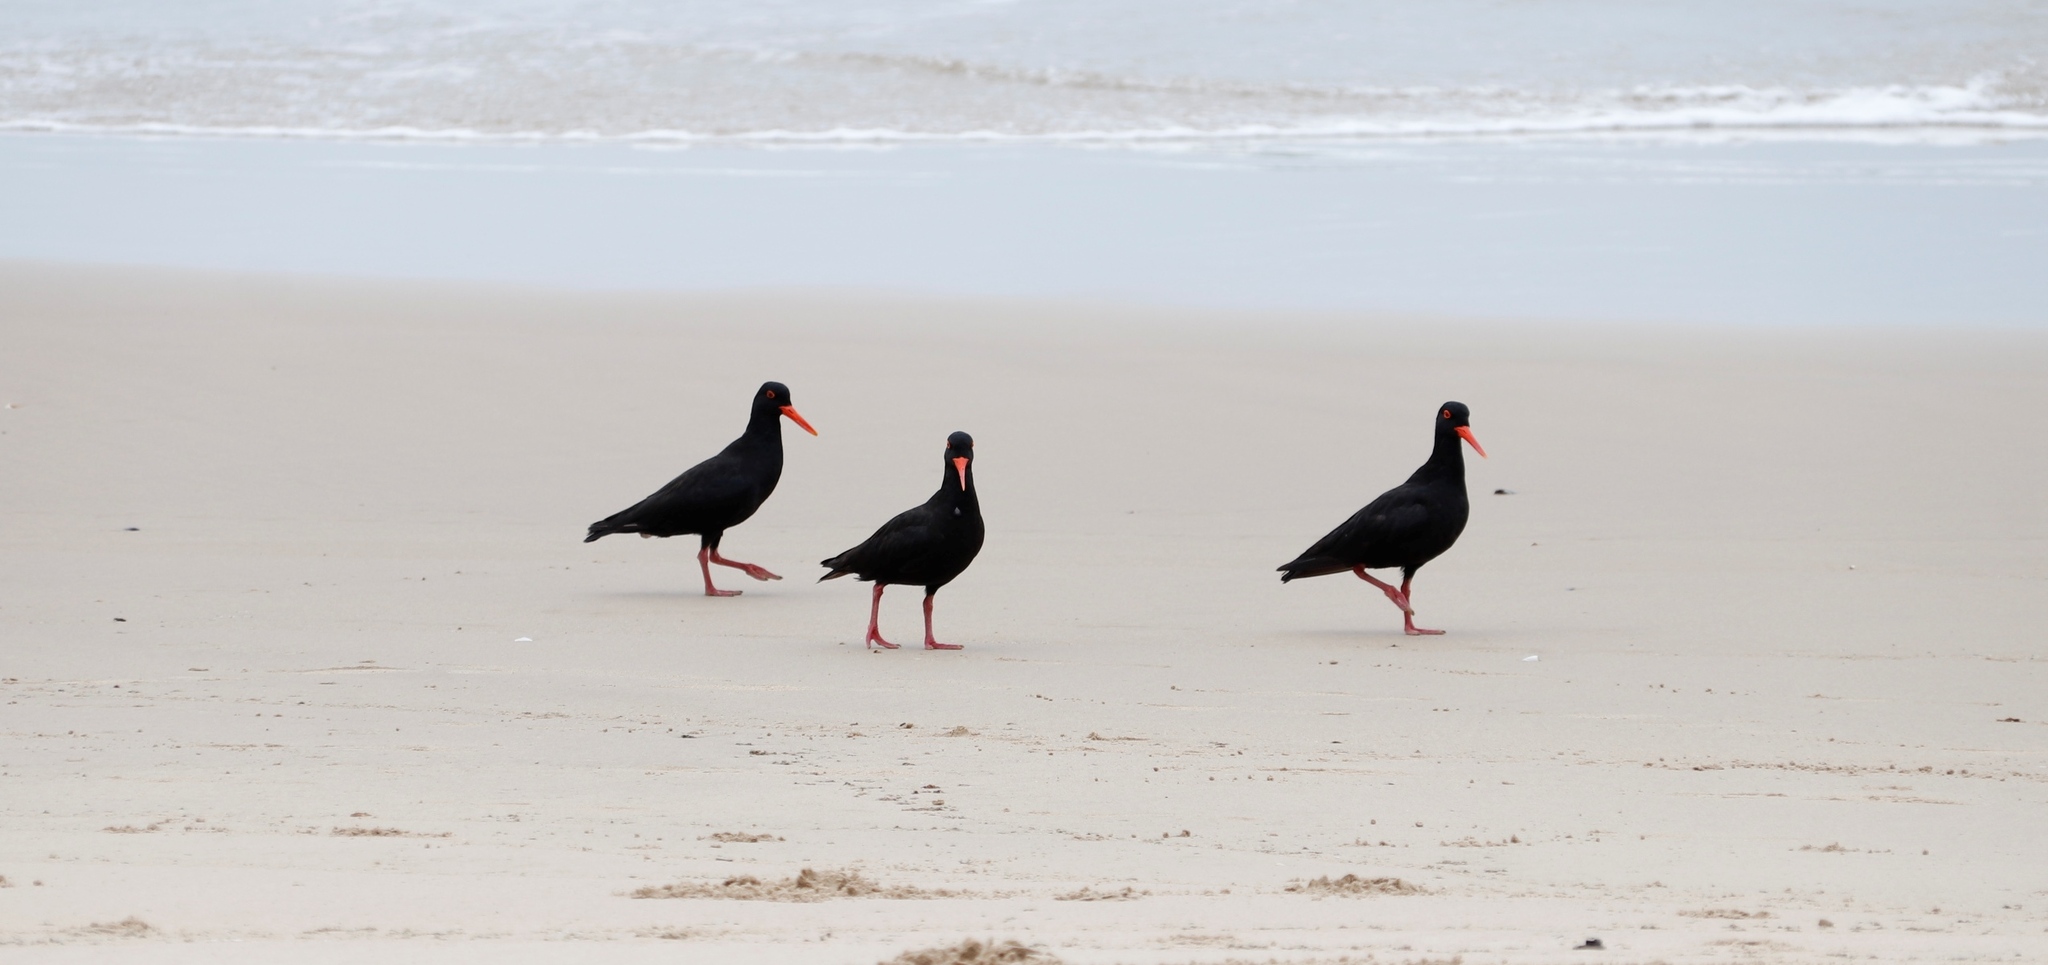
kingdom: Animalia
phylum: Chordata
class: Aves
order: Charadriiformes
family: Haematopodidae
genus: Haematopus
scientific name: Haematopus moquini
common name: African oystercatcher
